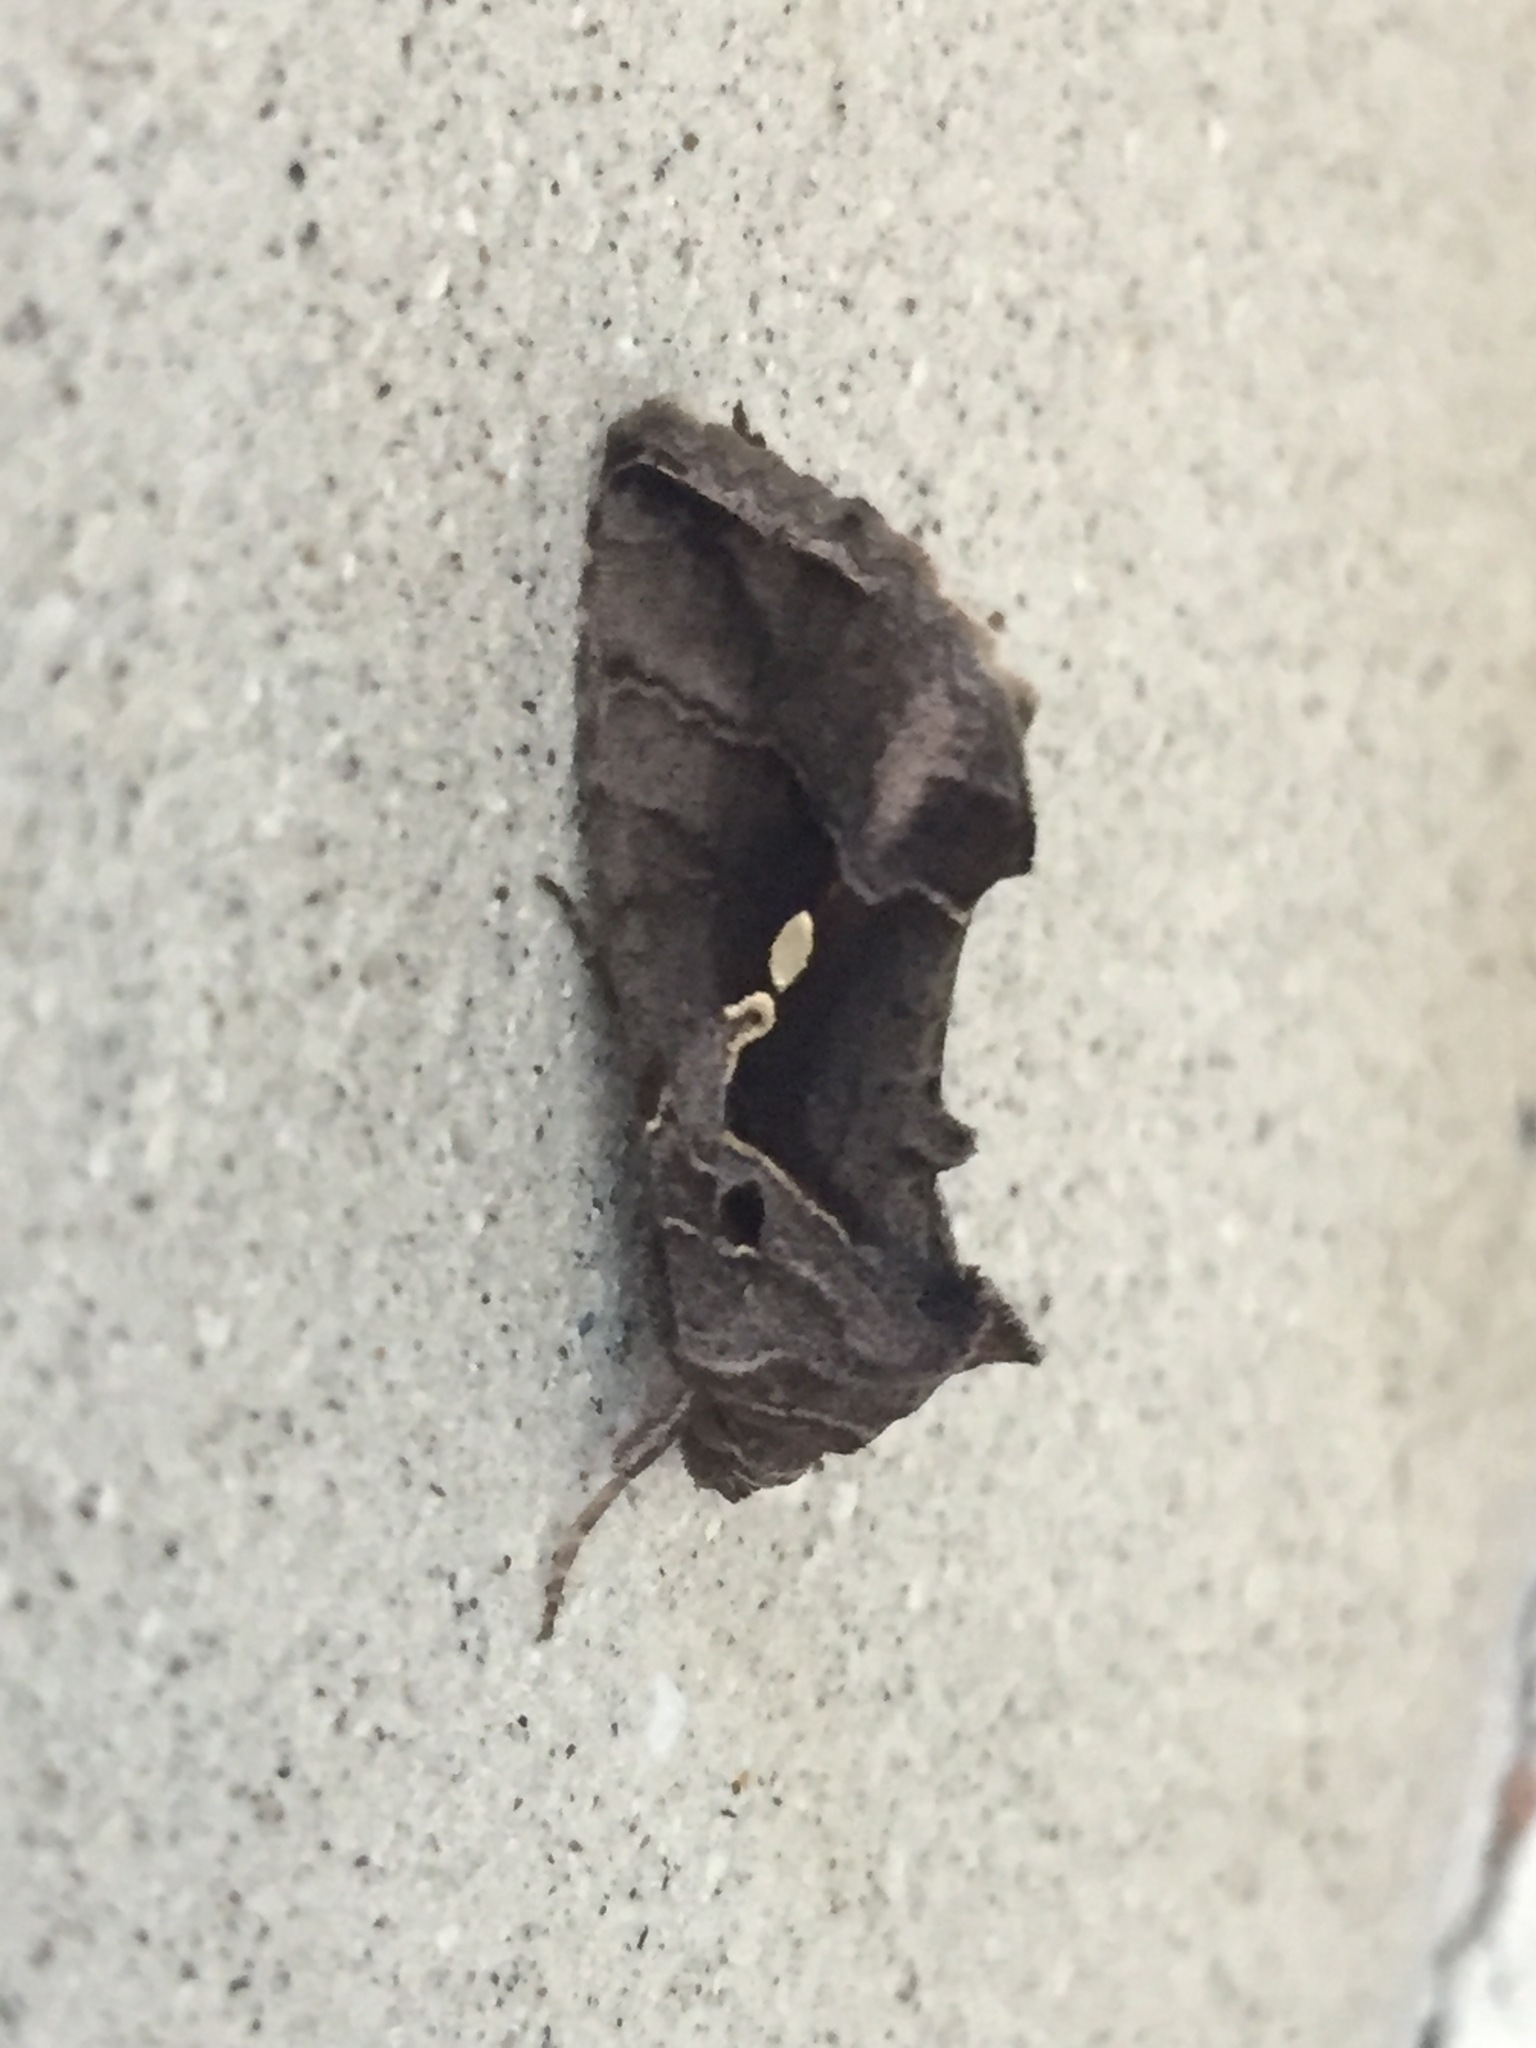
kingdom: Animalia
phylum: Arthropoda
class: Insecta
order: Lepidoptera
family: Noctuidae
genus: Chrysodeixis
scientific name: Chrysodeixis eriosoma
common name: Green garden looper
